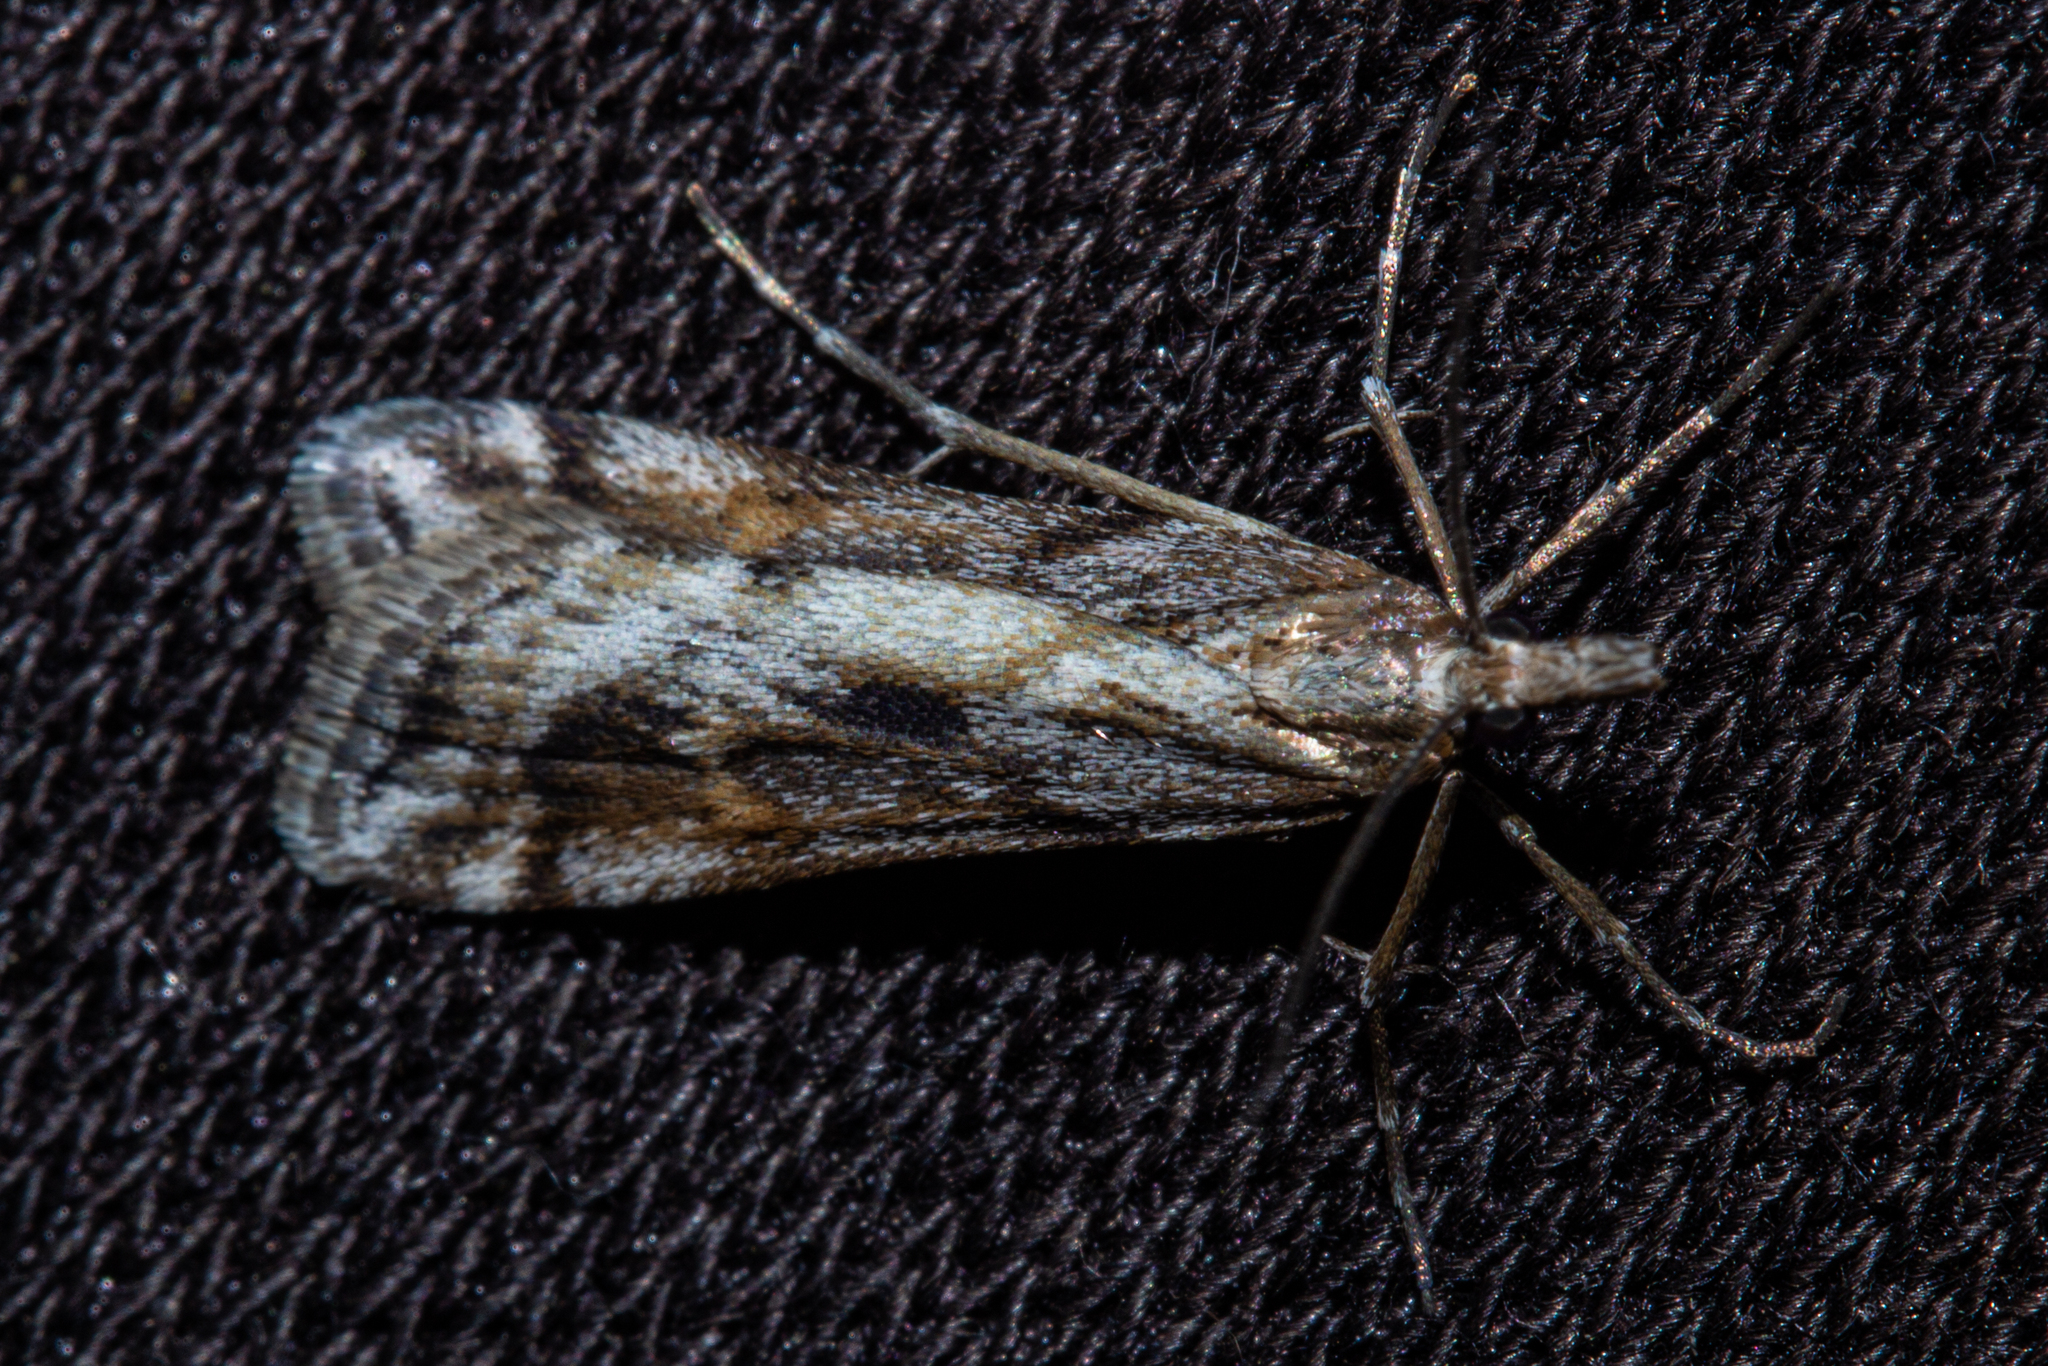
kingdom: Animalia
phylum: Arthropoda
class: Insecta
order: Lepidoptera
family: Crambidae
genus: Scoparia
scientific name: Scoparia exilis
